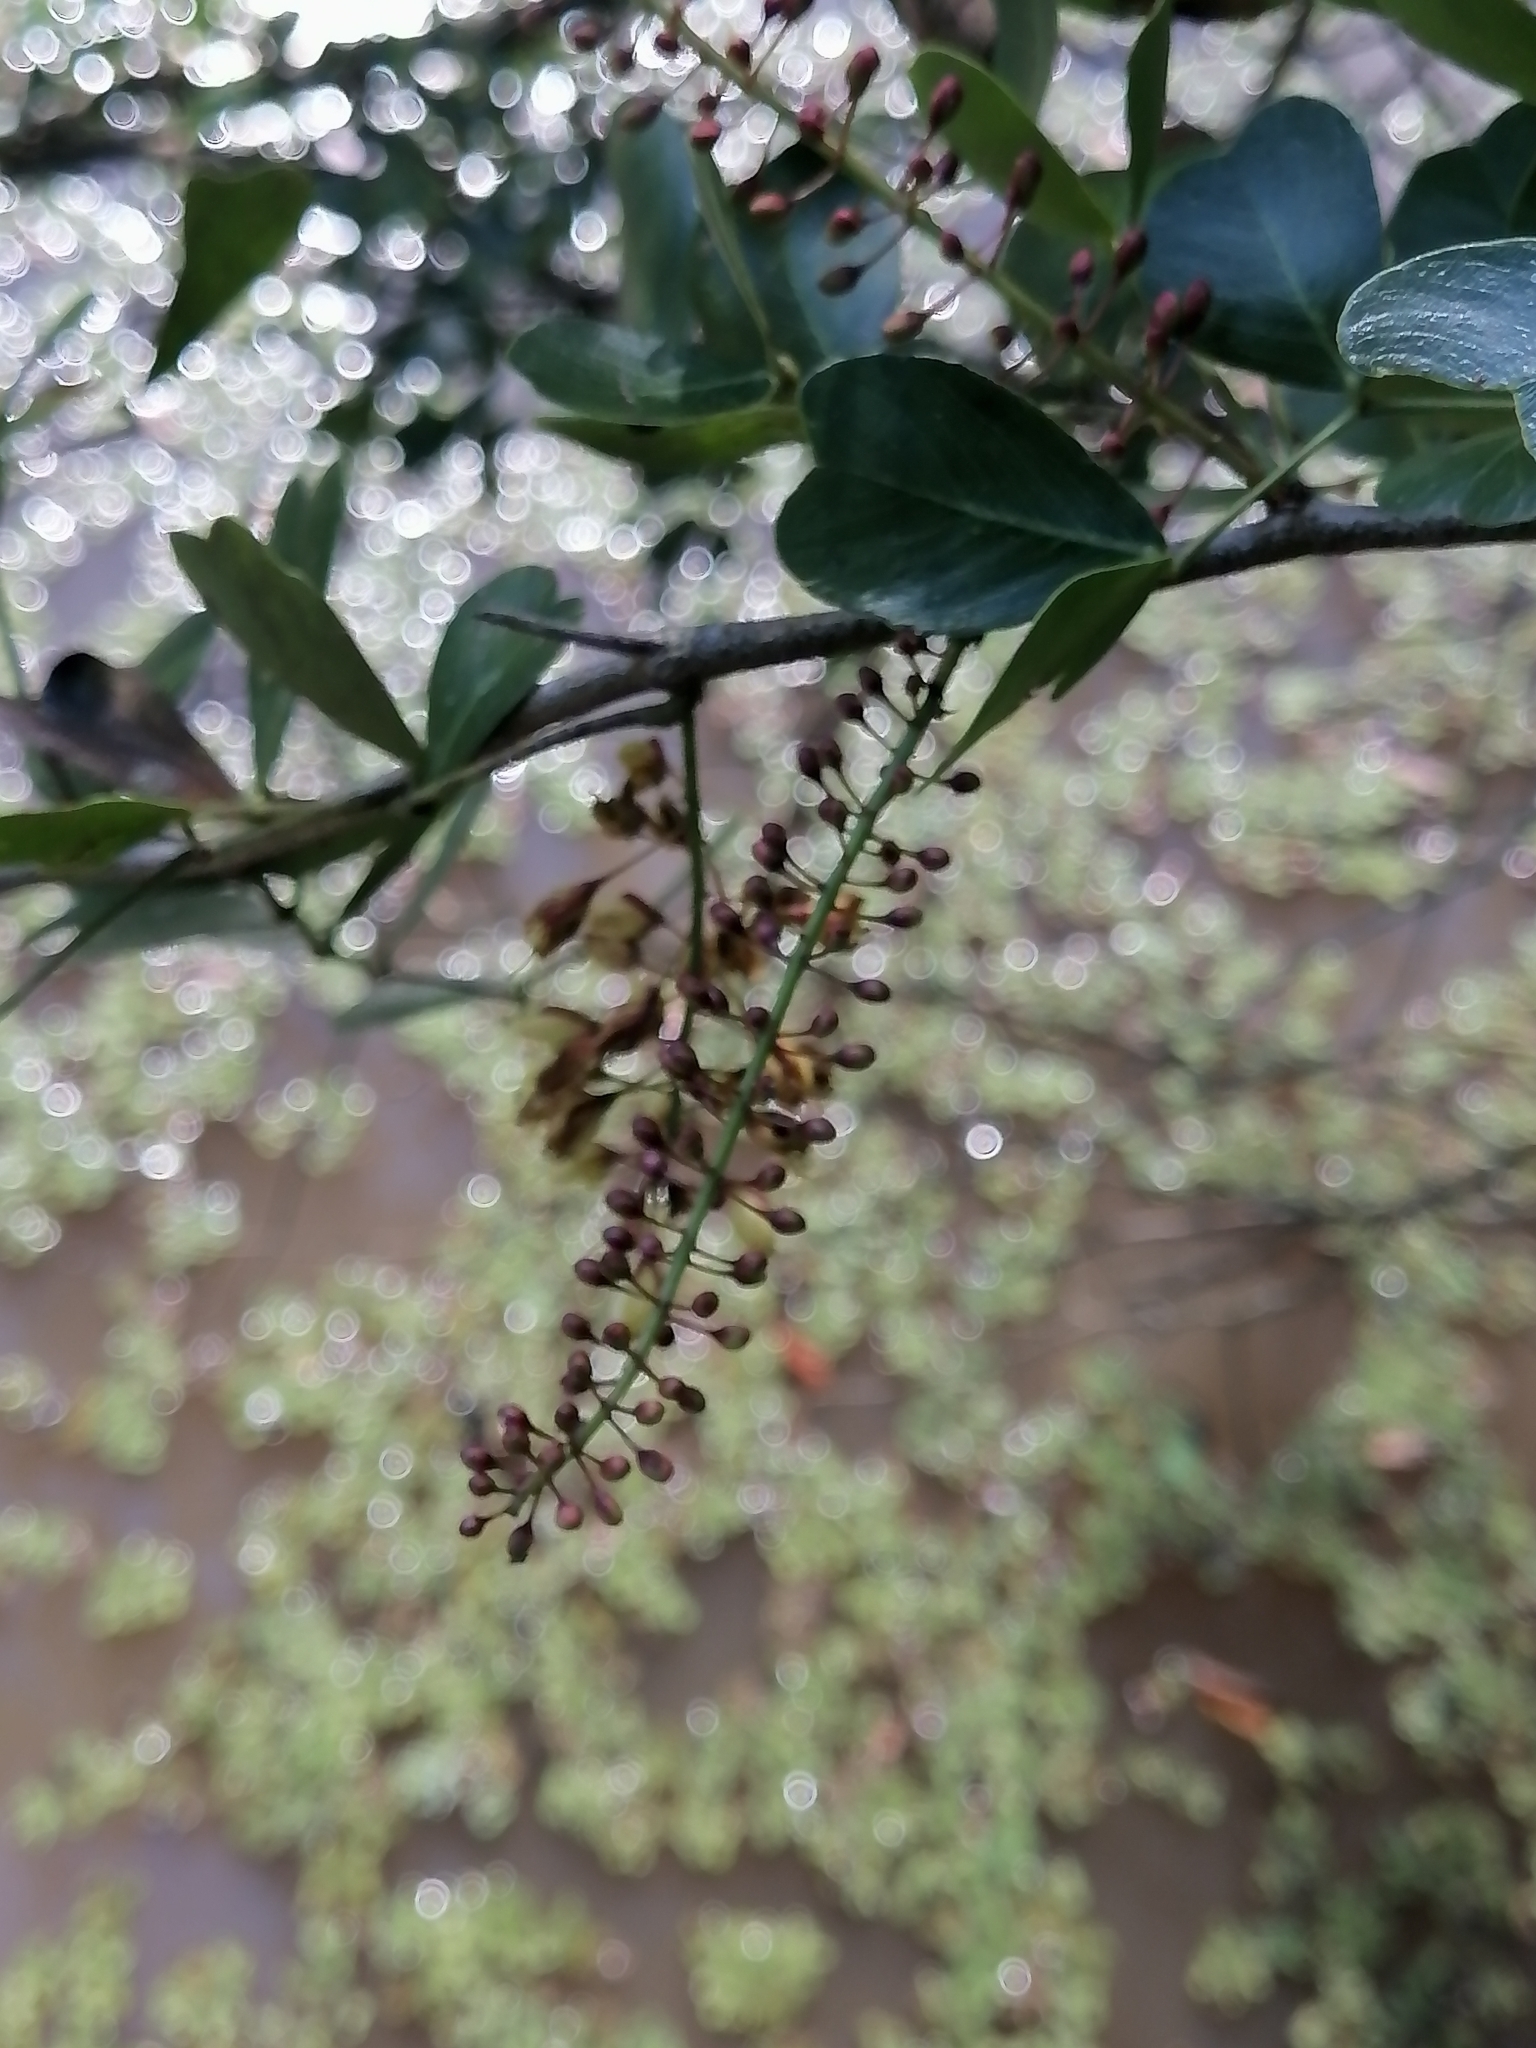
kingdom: Plantae
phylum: Tracheophyta
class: Magnoliopsida
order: Fabales
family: Fabaceae
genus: Haematoxylum
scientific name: Haematoxylum campechianum
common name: Logwood
